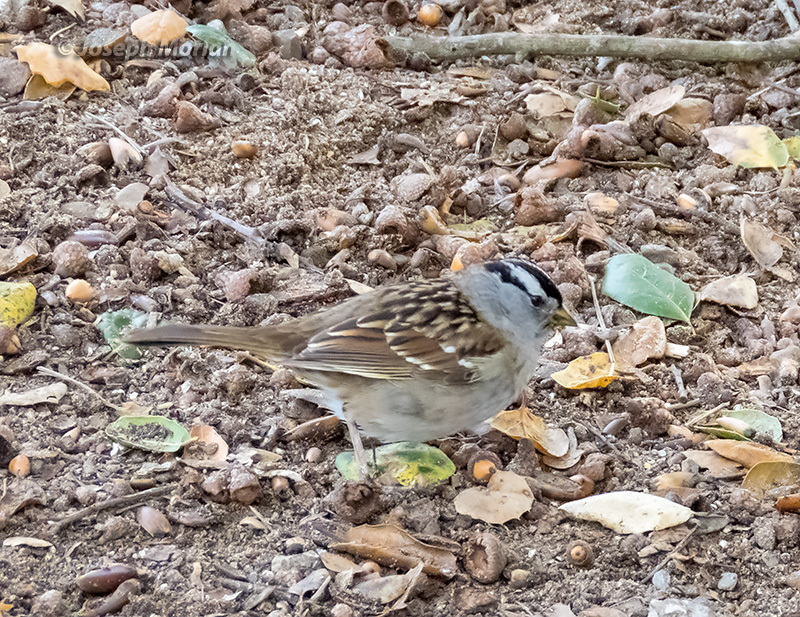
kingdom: Animalia
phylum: Chordata
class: Aves
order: Passeriformes
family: Passerellidae
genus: Zonotrichia
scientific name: Zonotrichia leucophrys
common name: White-crowned sparrow
